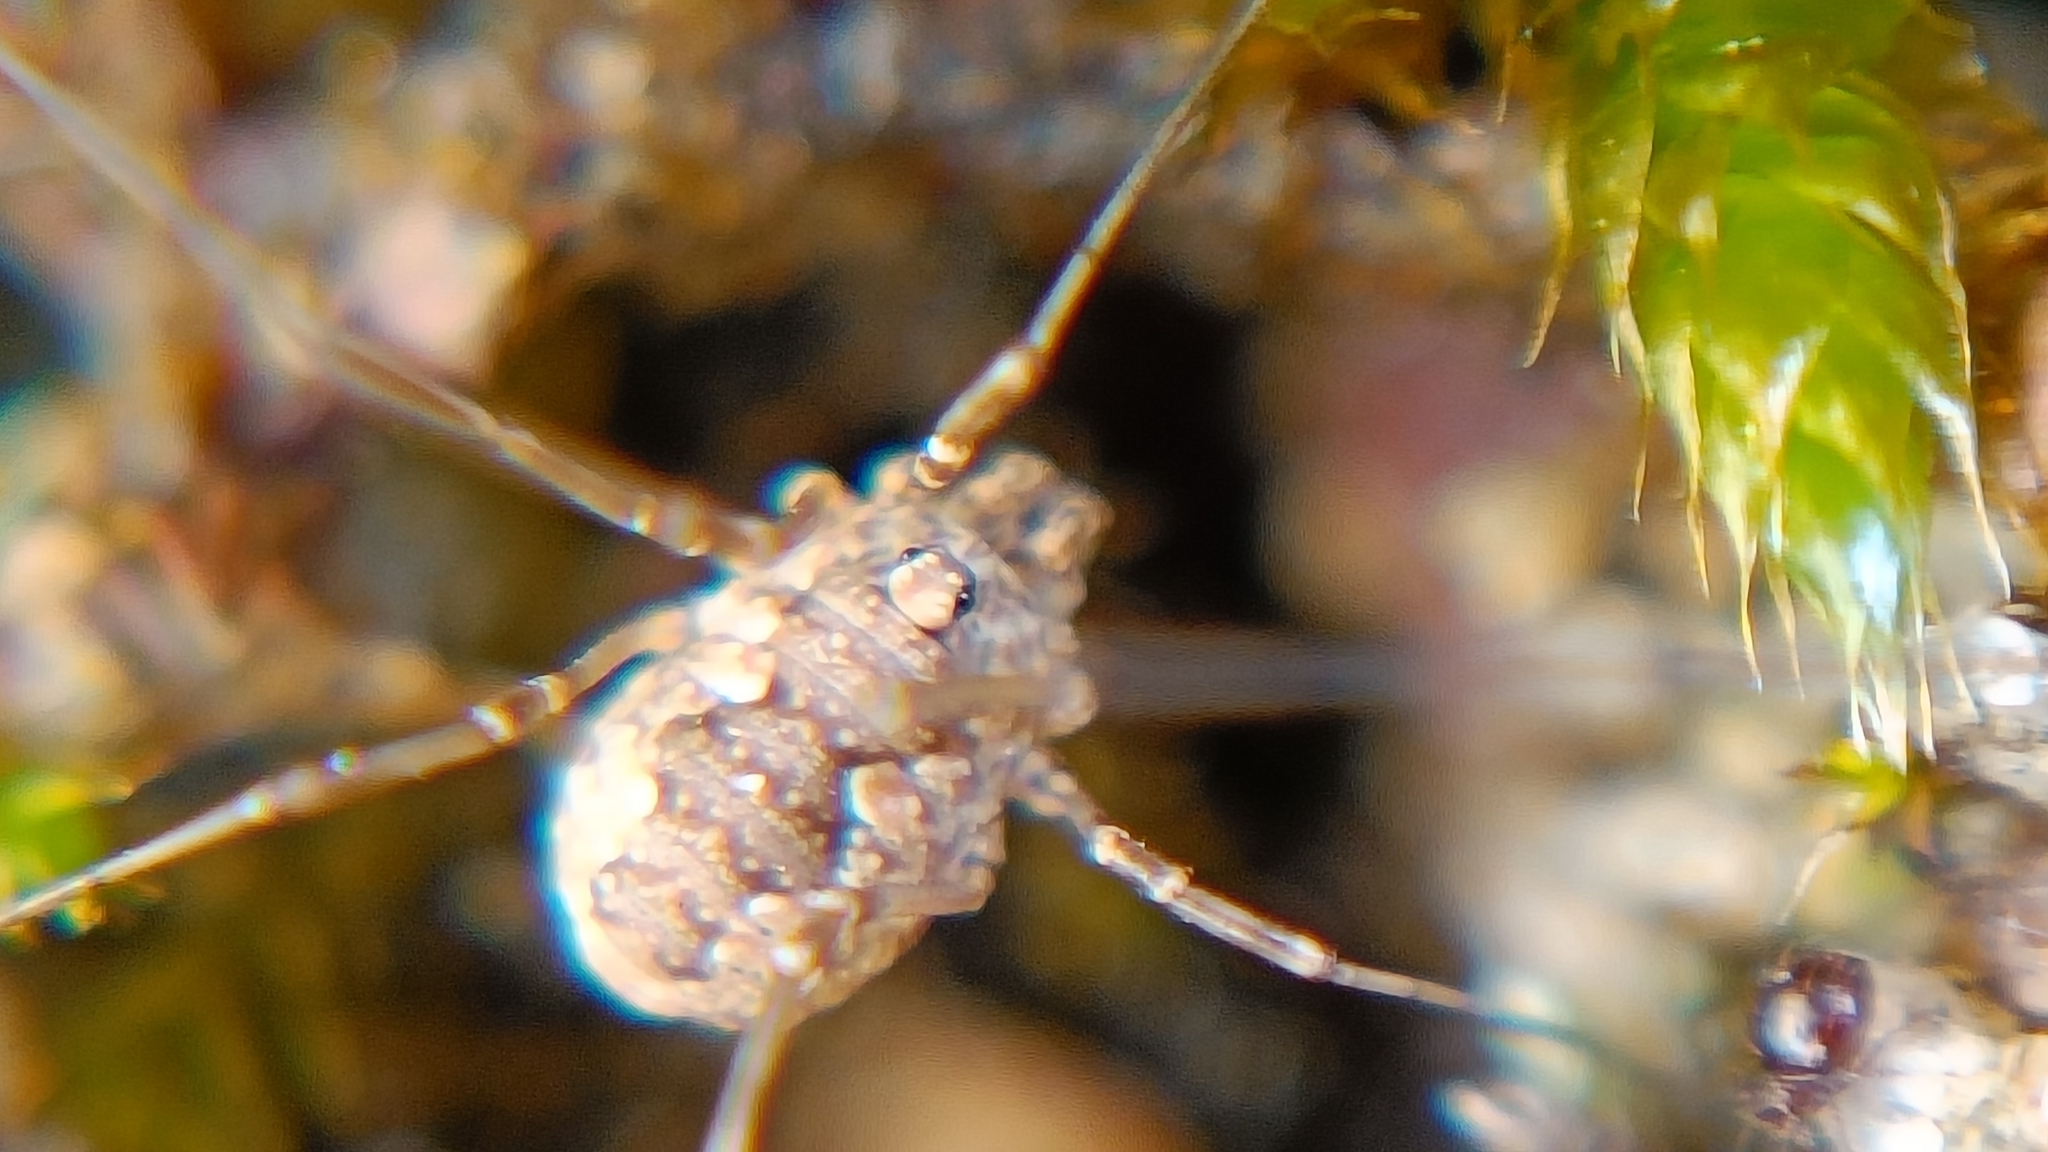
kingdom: Animalia
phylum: Arthropoda
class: Arachnida
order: Opiliones
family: Phalangiidae
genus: Phalangium
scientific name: Phalangium opilio
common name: Daddy longleg
